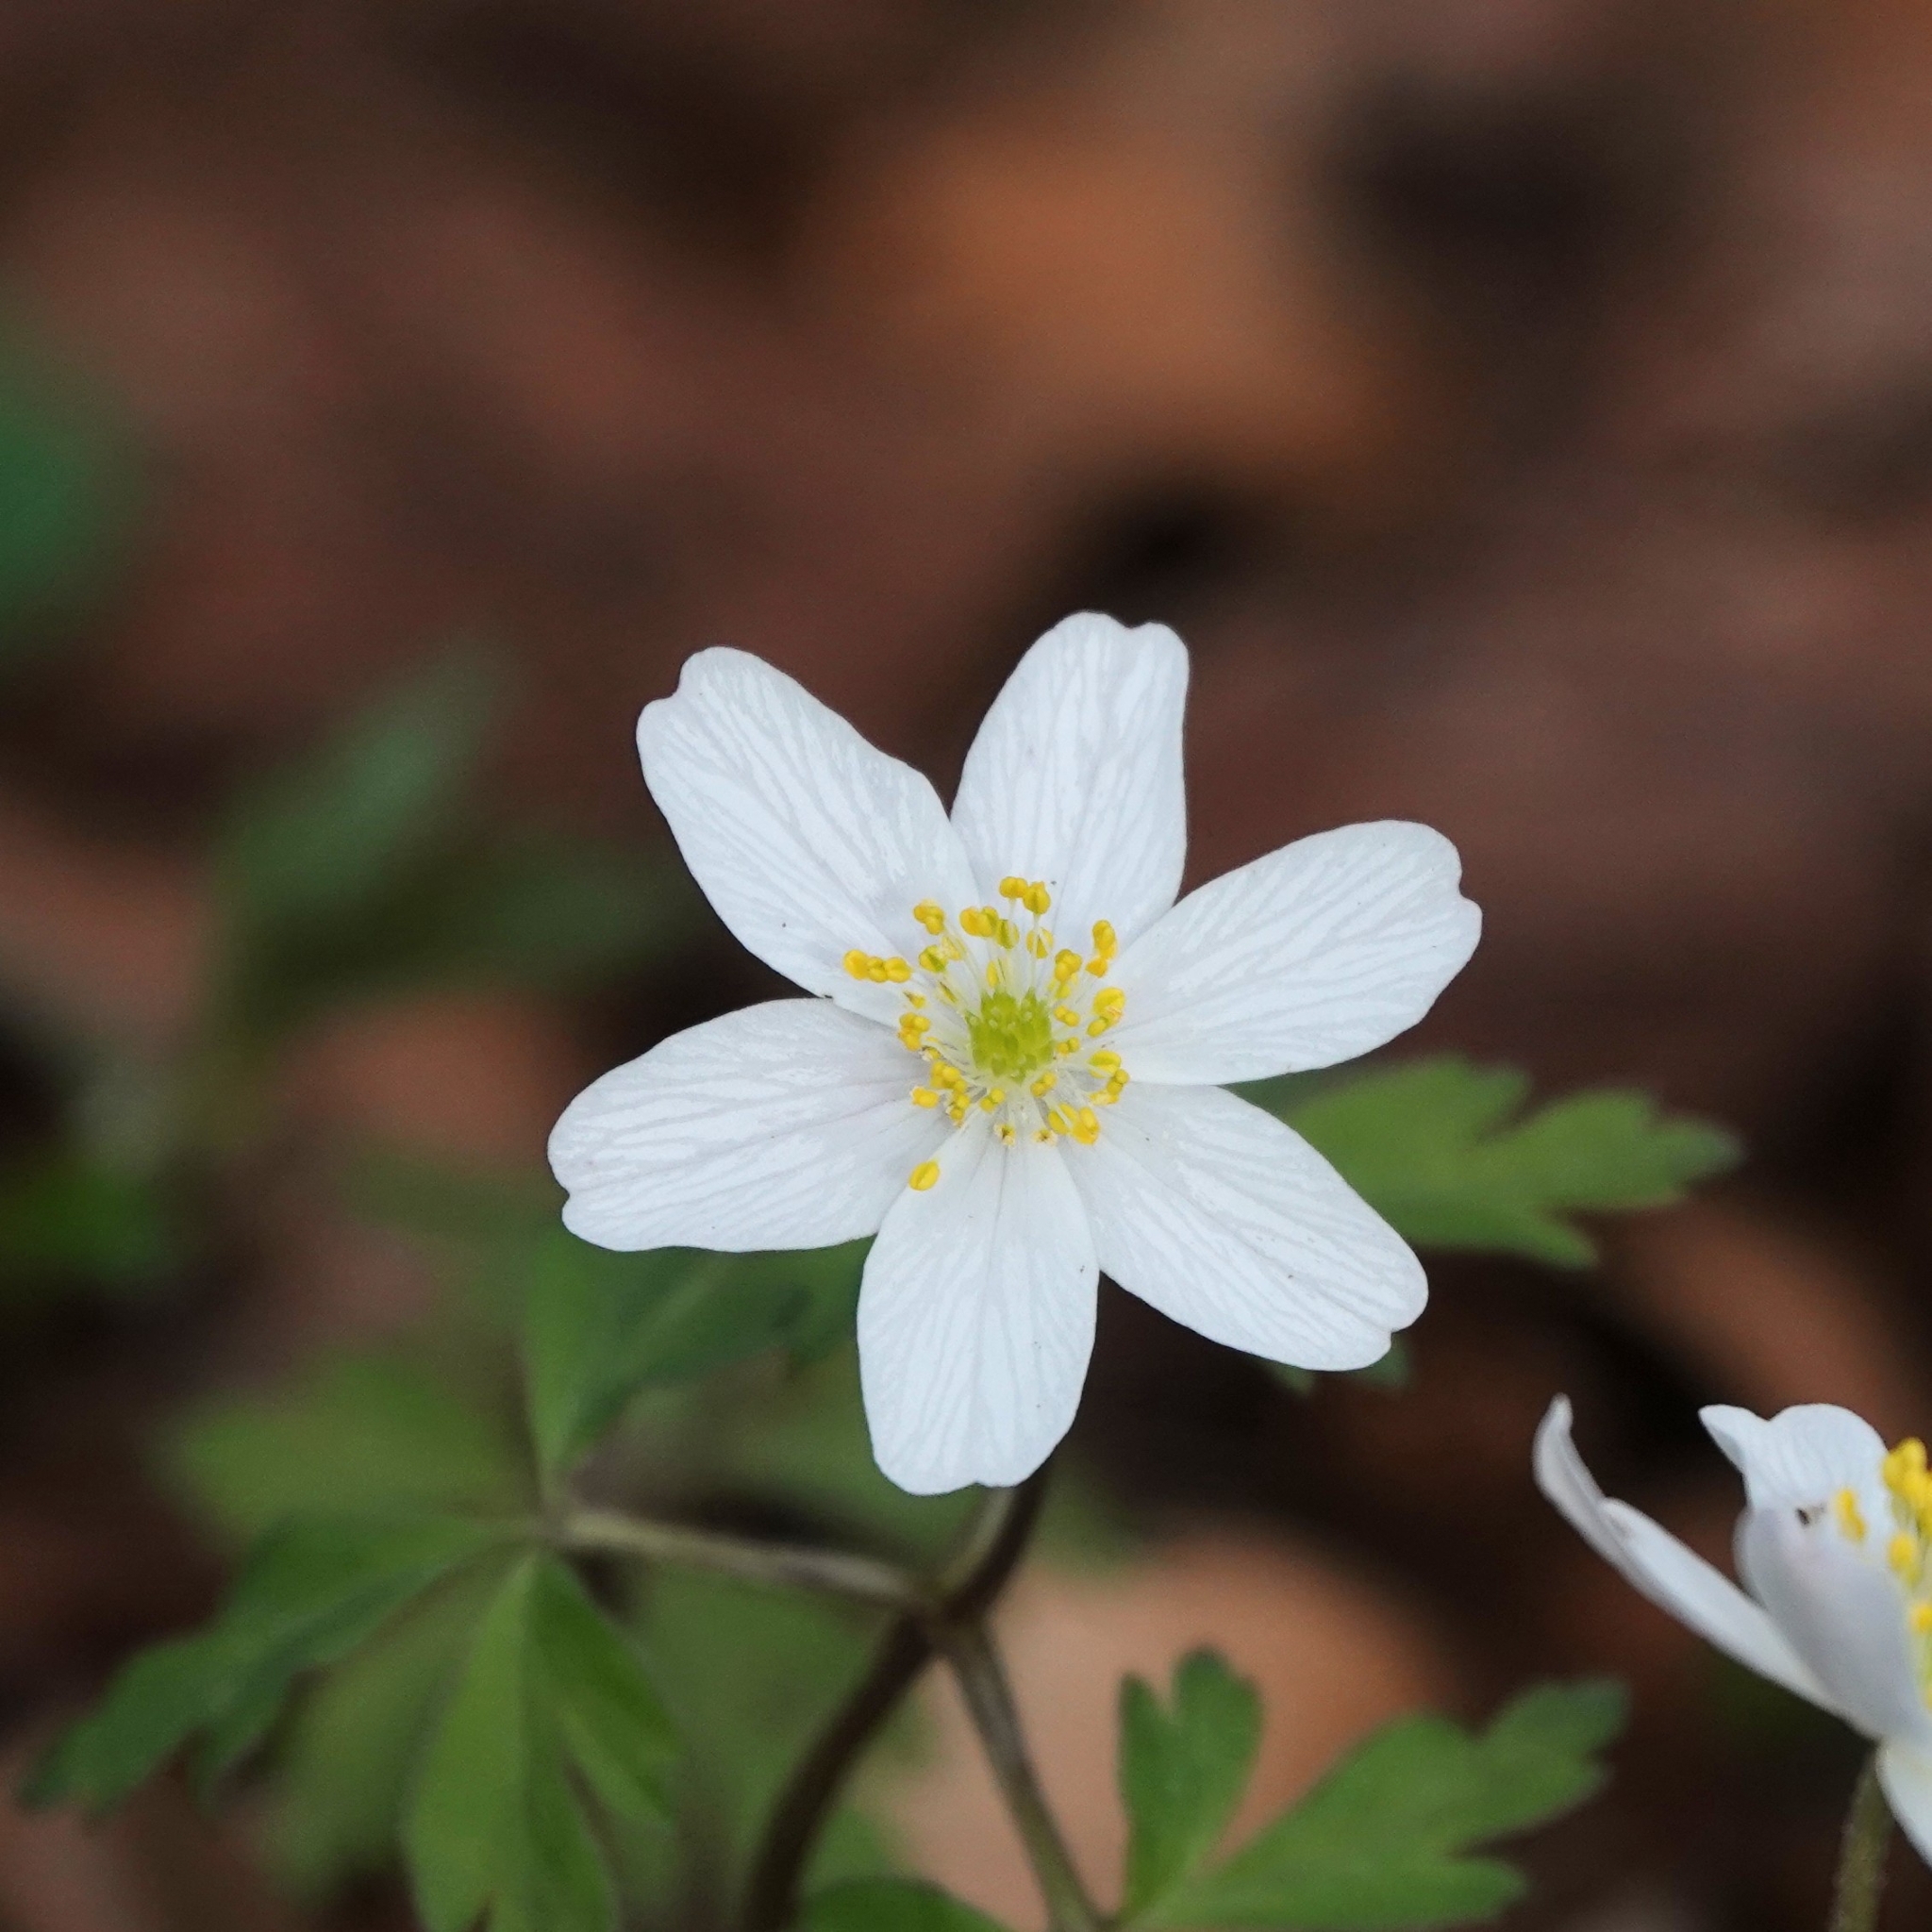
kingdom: Plantae
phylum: Tracheophyta
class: Magnoliopsida
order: Ranunculales
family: Ranunculaceae
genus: Anemone
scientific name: Anemone nemorosa
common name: Wood anemone
